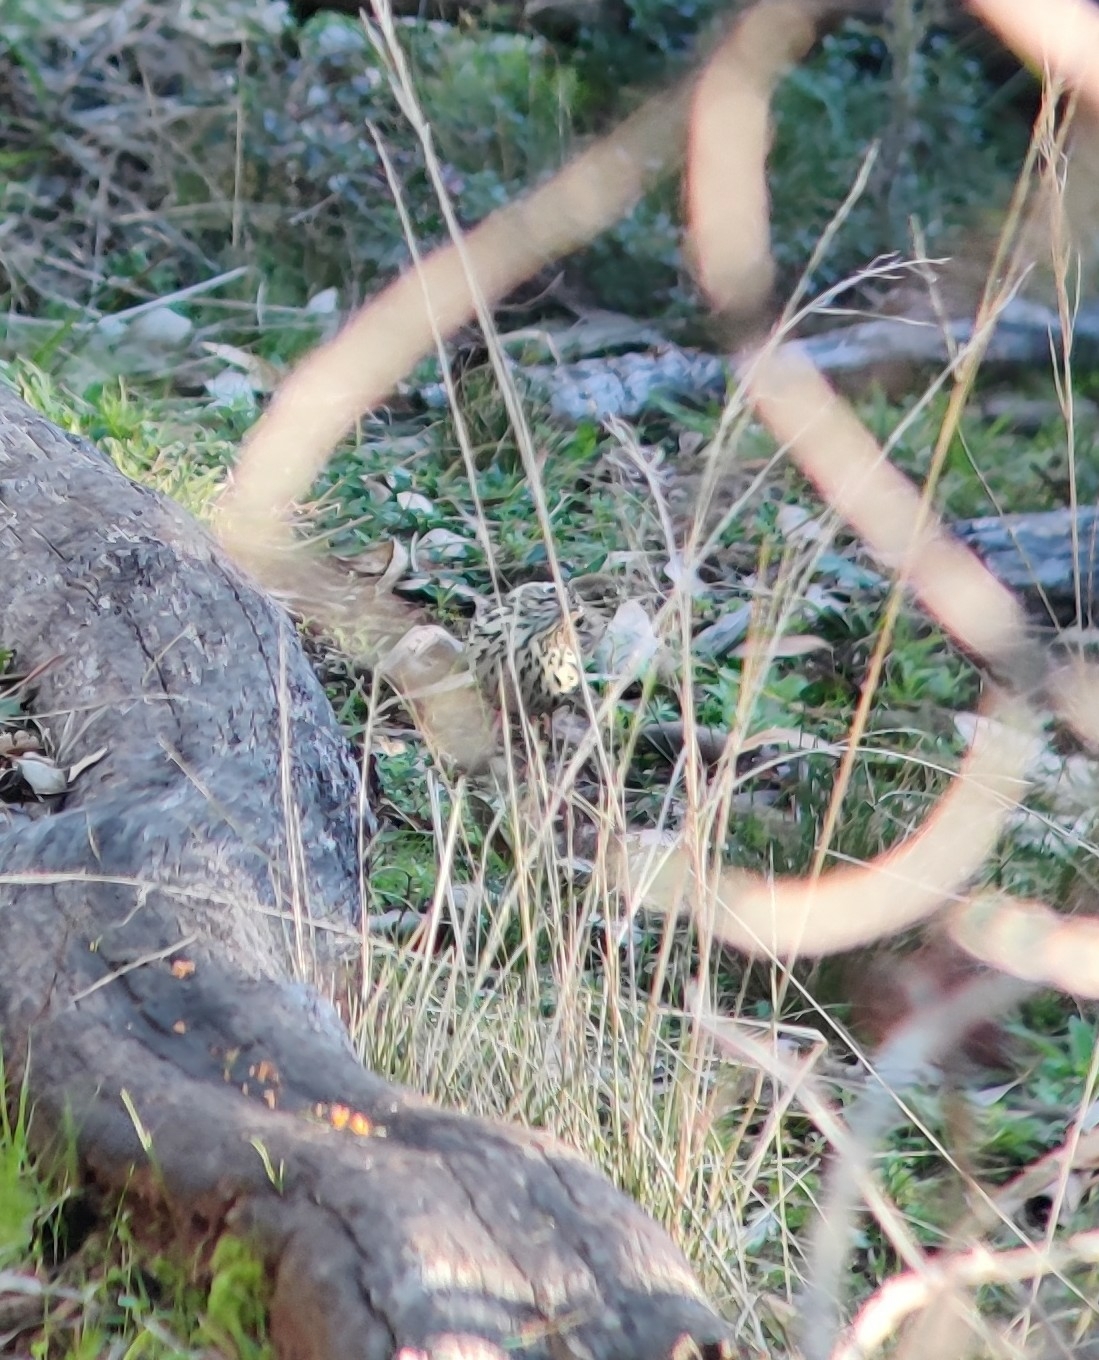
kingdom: Animalia
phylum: Chordata
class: Aves
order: Passeriformes
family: Acanthizidae
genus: Pyrrholaemus
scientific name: Pyrrholaemus sagittatus
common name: Speckled warbler
